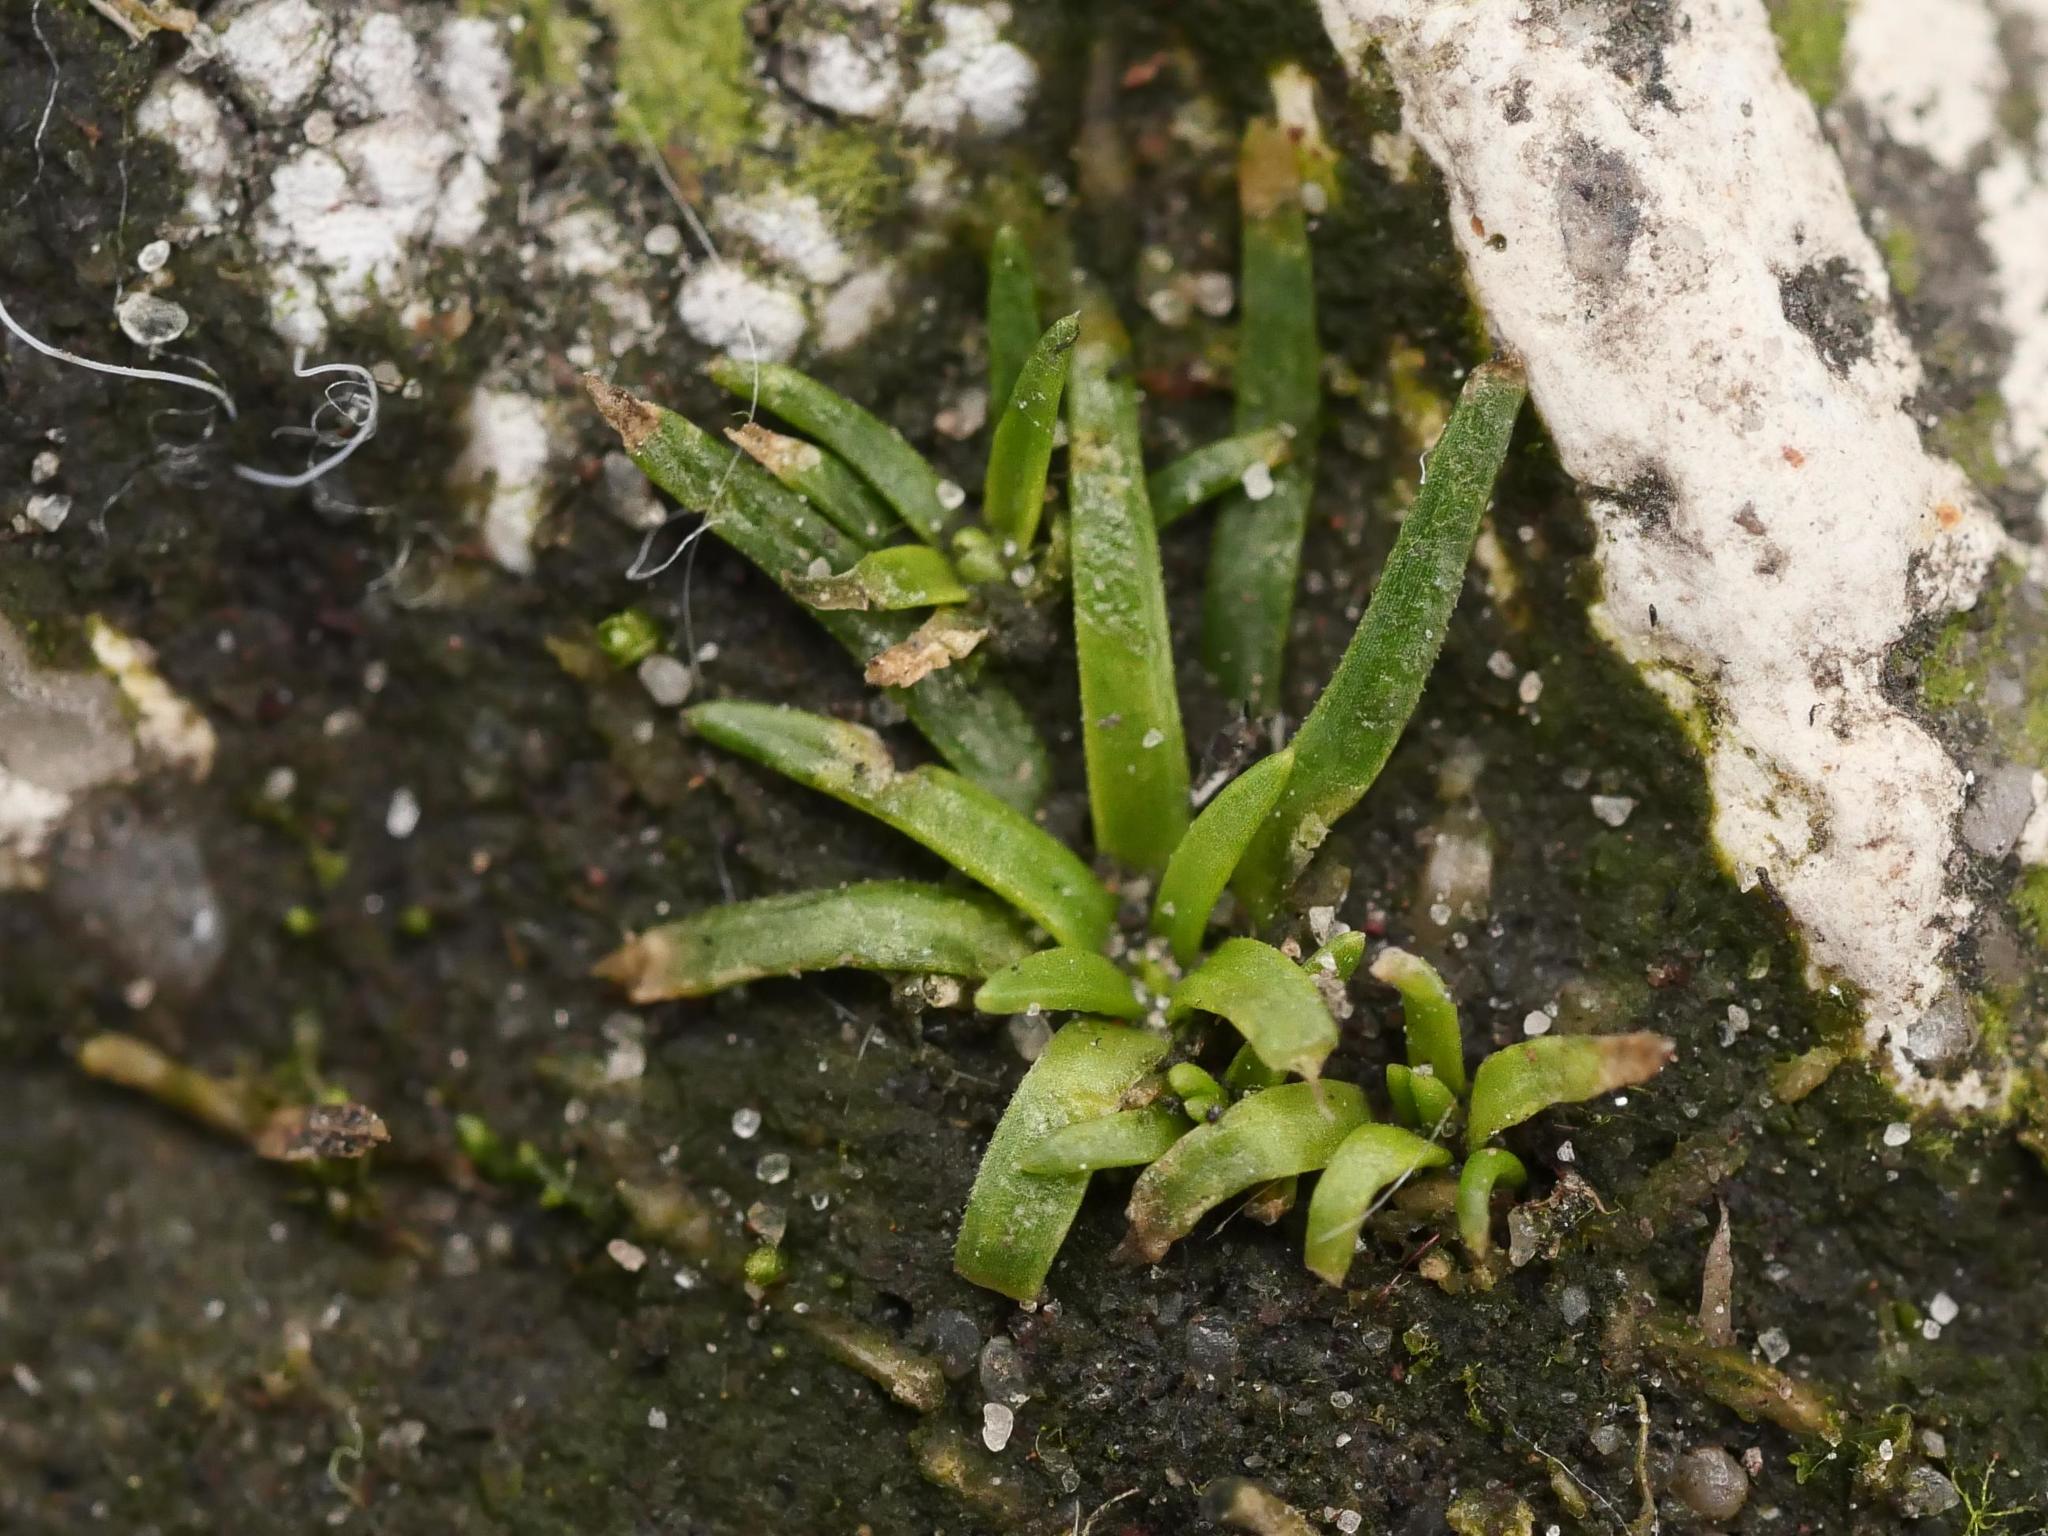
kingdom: Plantae
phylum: Tracheophyta
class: Magnoliopsida
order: Caryophyllales
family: Caryophyllaceae
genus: Sagina
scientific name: Sagina procumbens
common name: Procumbent pearlwort
